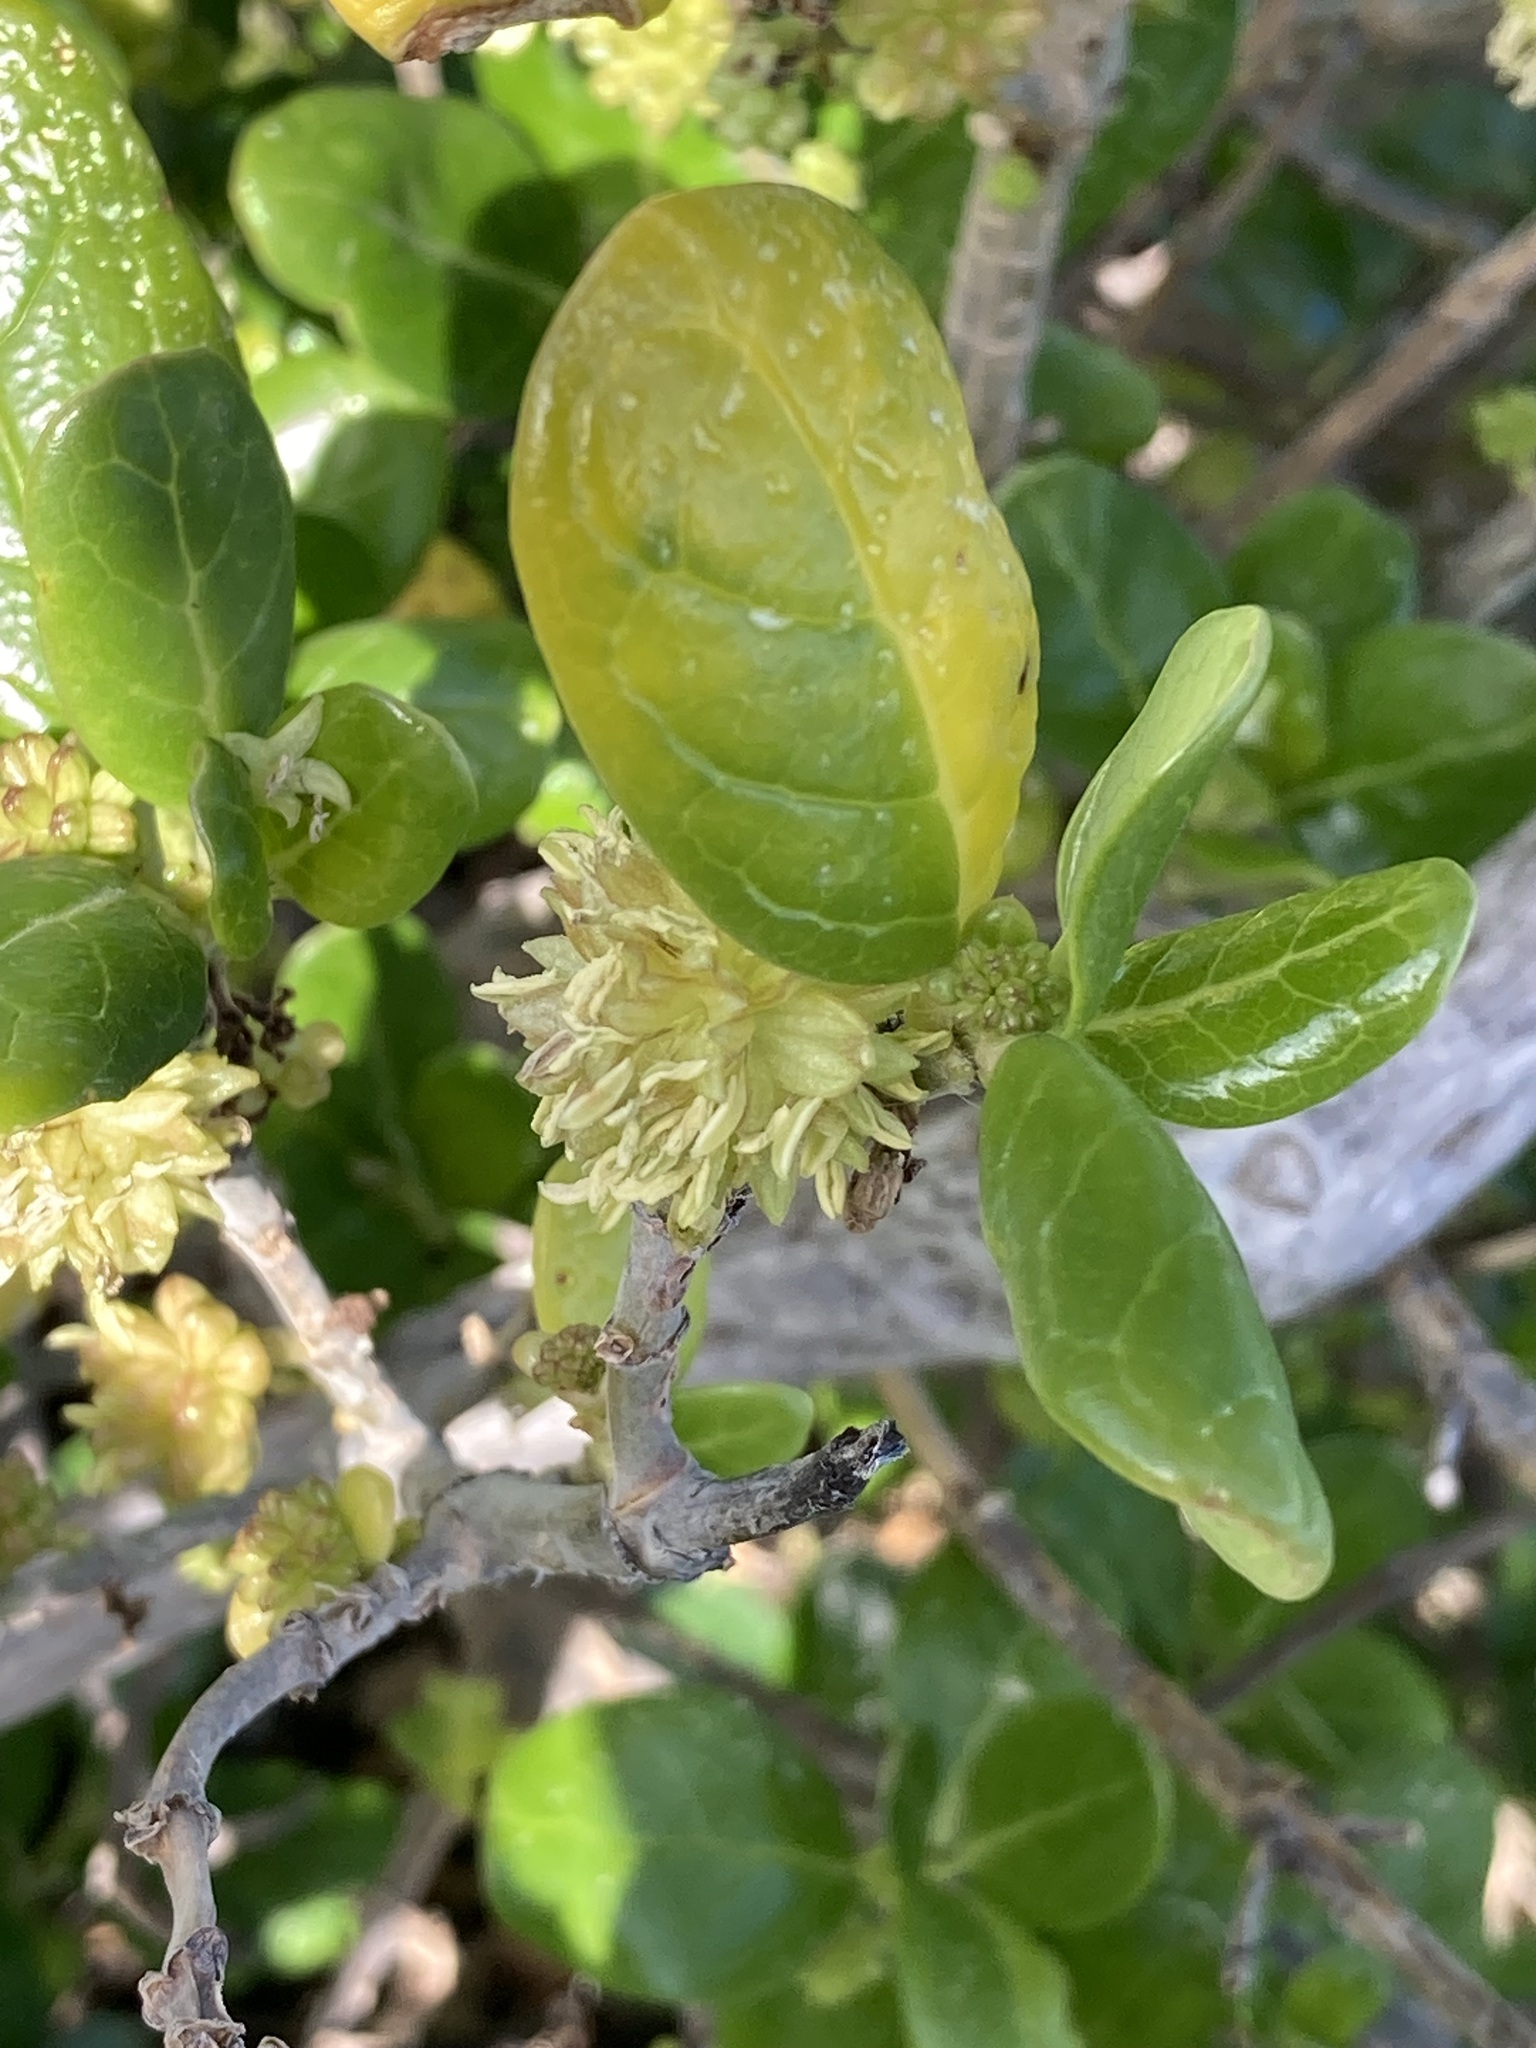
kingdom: Plantae
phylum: Tracheophyta
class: Magnoliopsida
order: Gentianales
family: Rubiaceae
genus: Coprosma
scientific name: Coprosma repens
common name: Tree bedstraw
